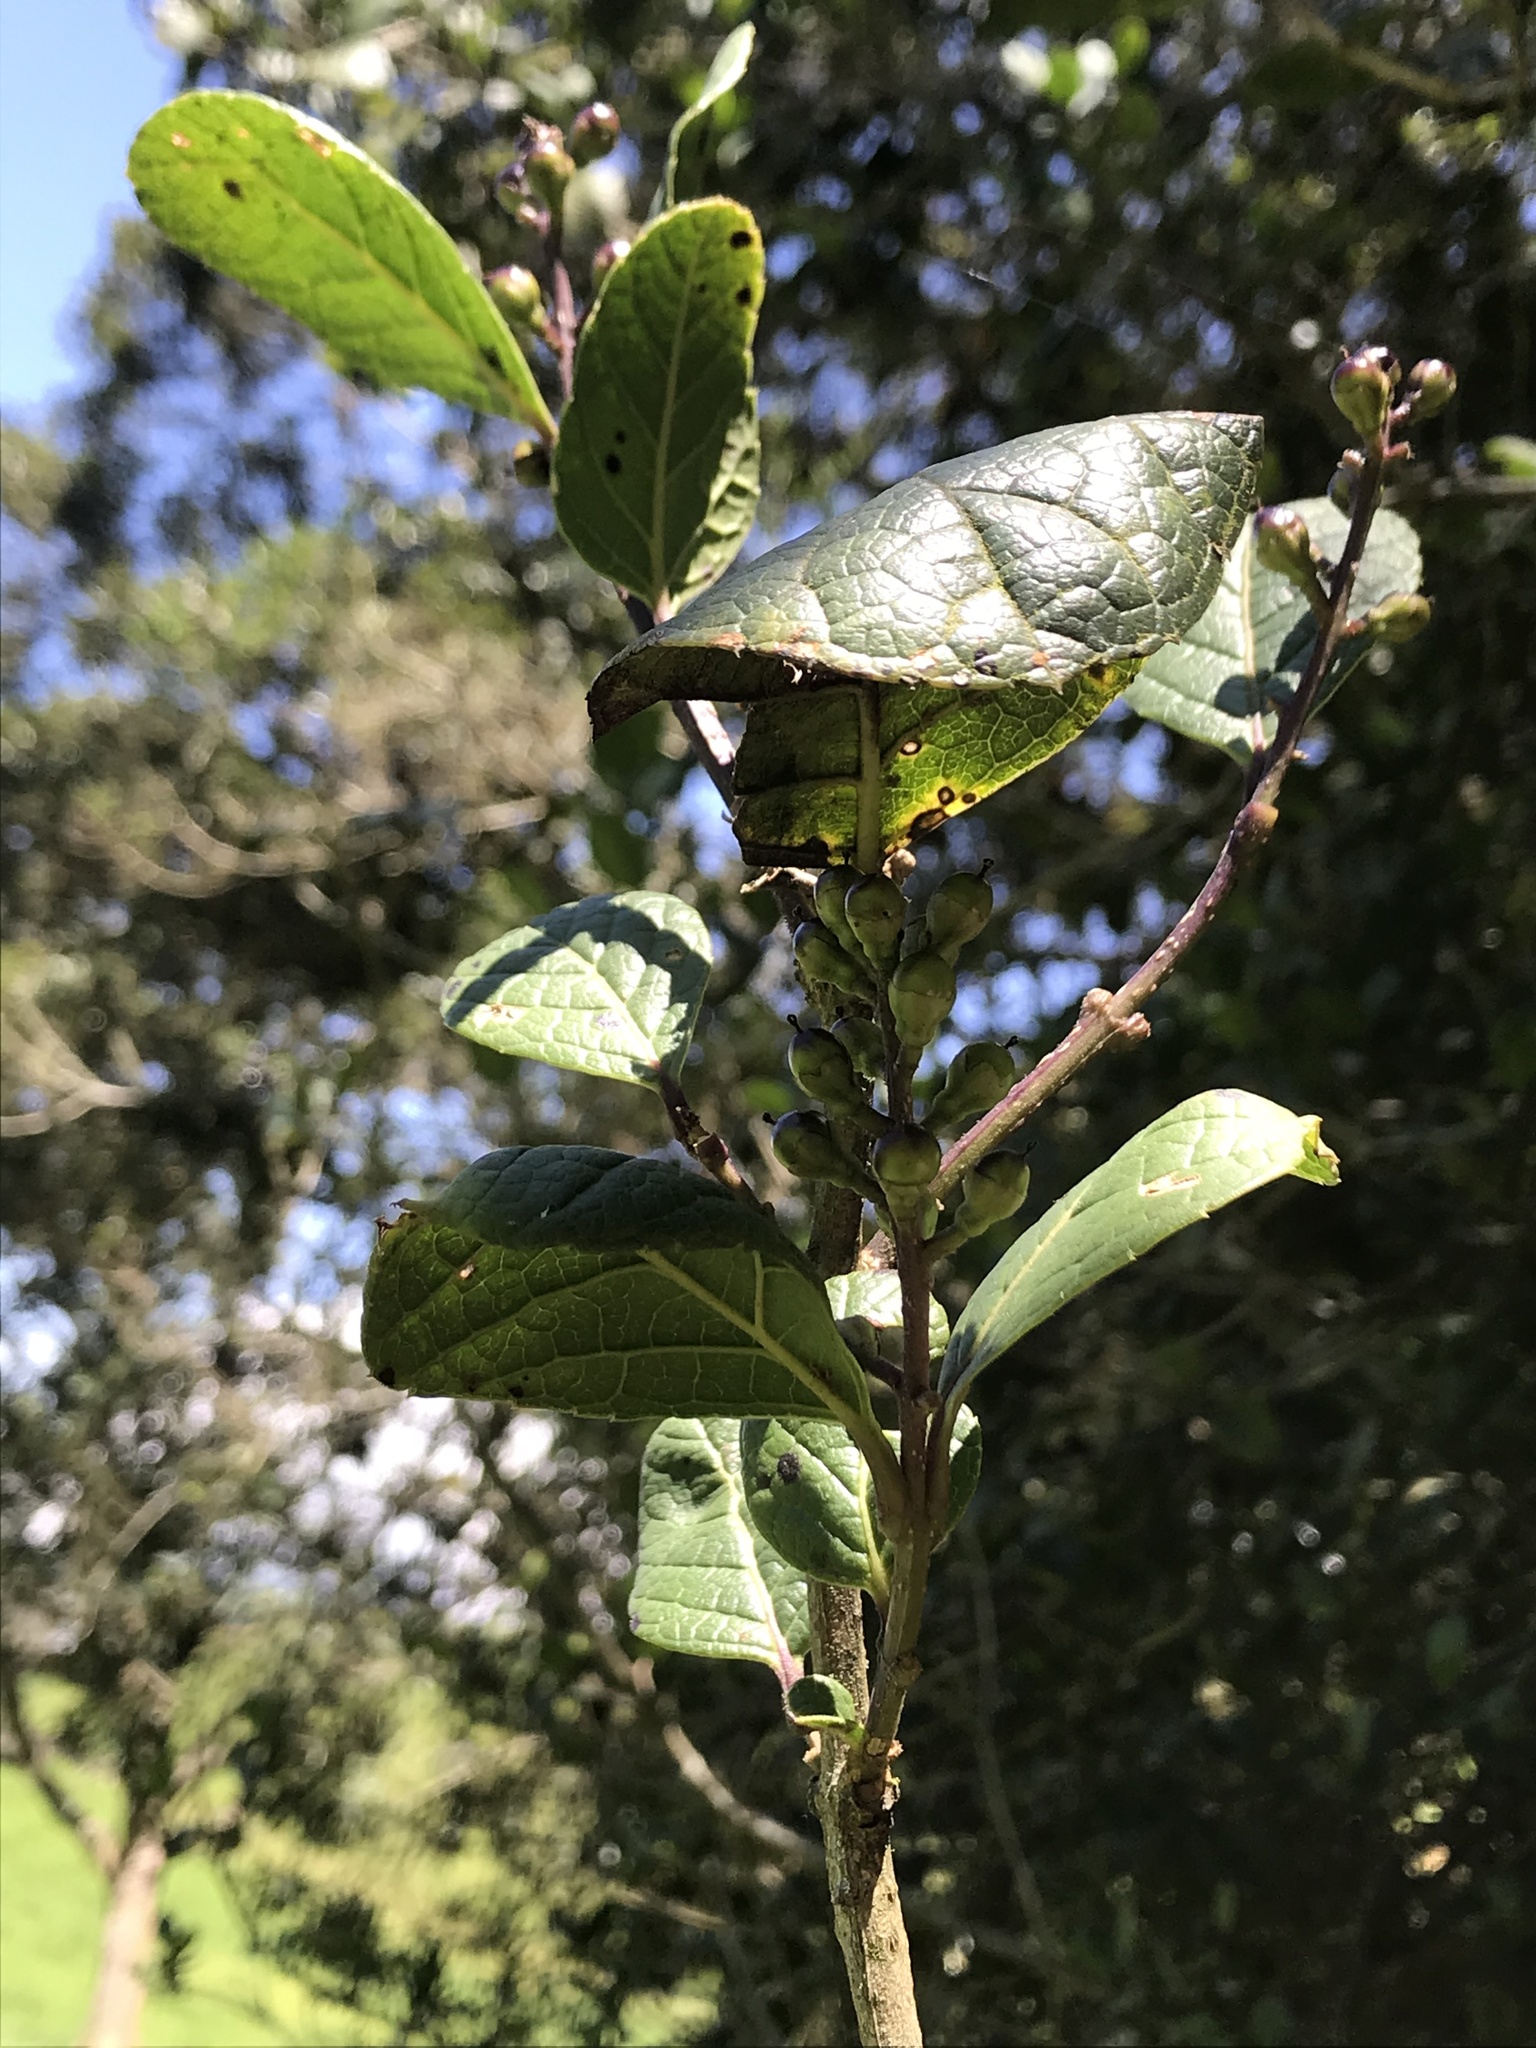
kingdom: Plantae
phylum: Tracheophyta
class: Magnoliopsida
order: Lamiales
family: Verbenaceae
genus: Citharexylum
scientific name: Citharexylum reticulatum
